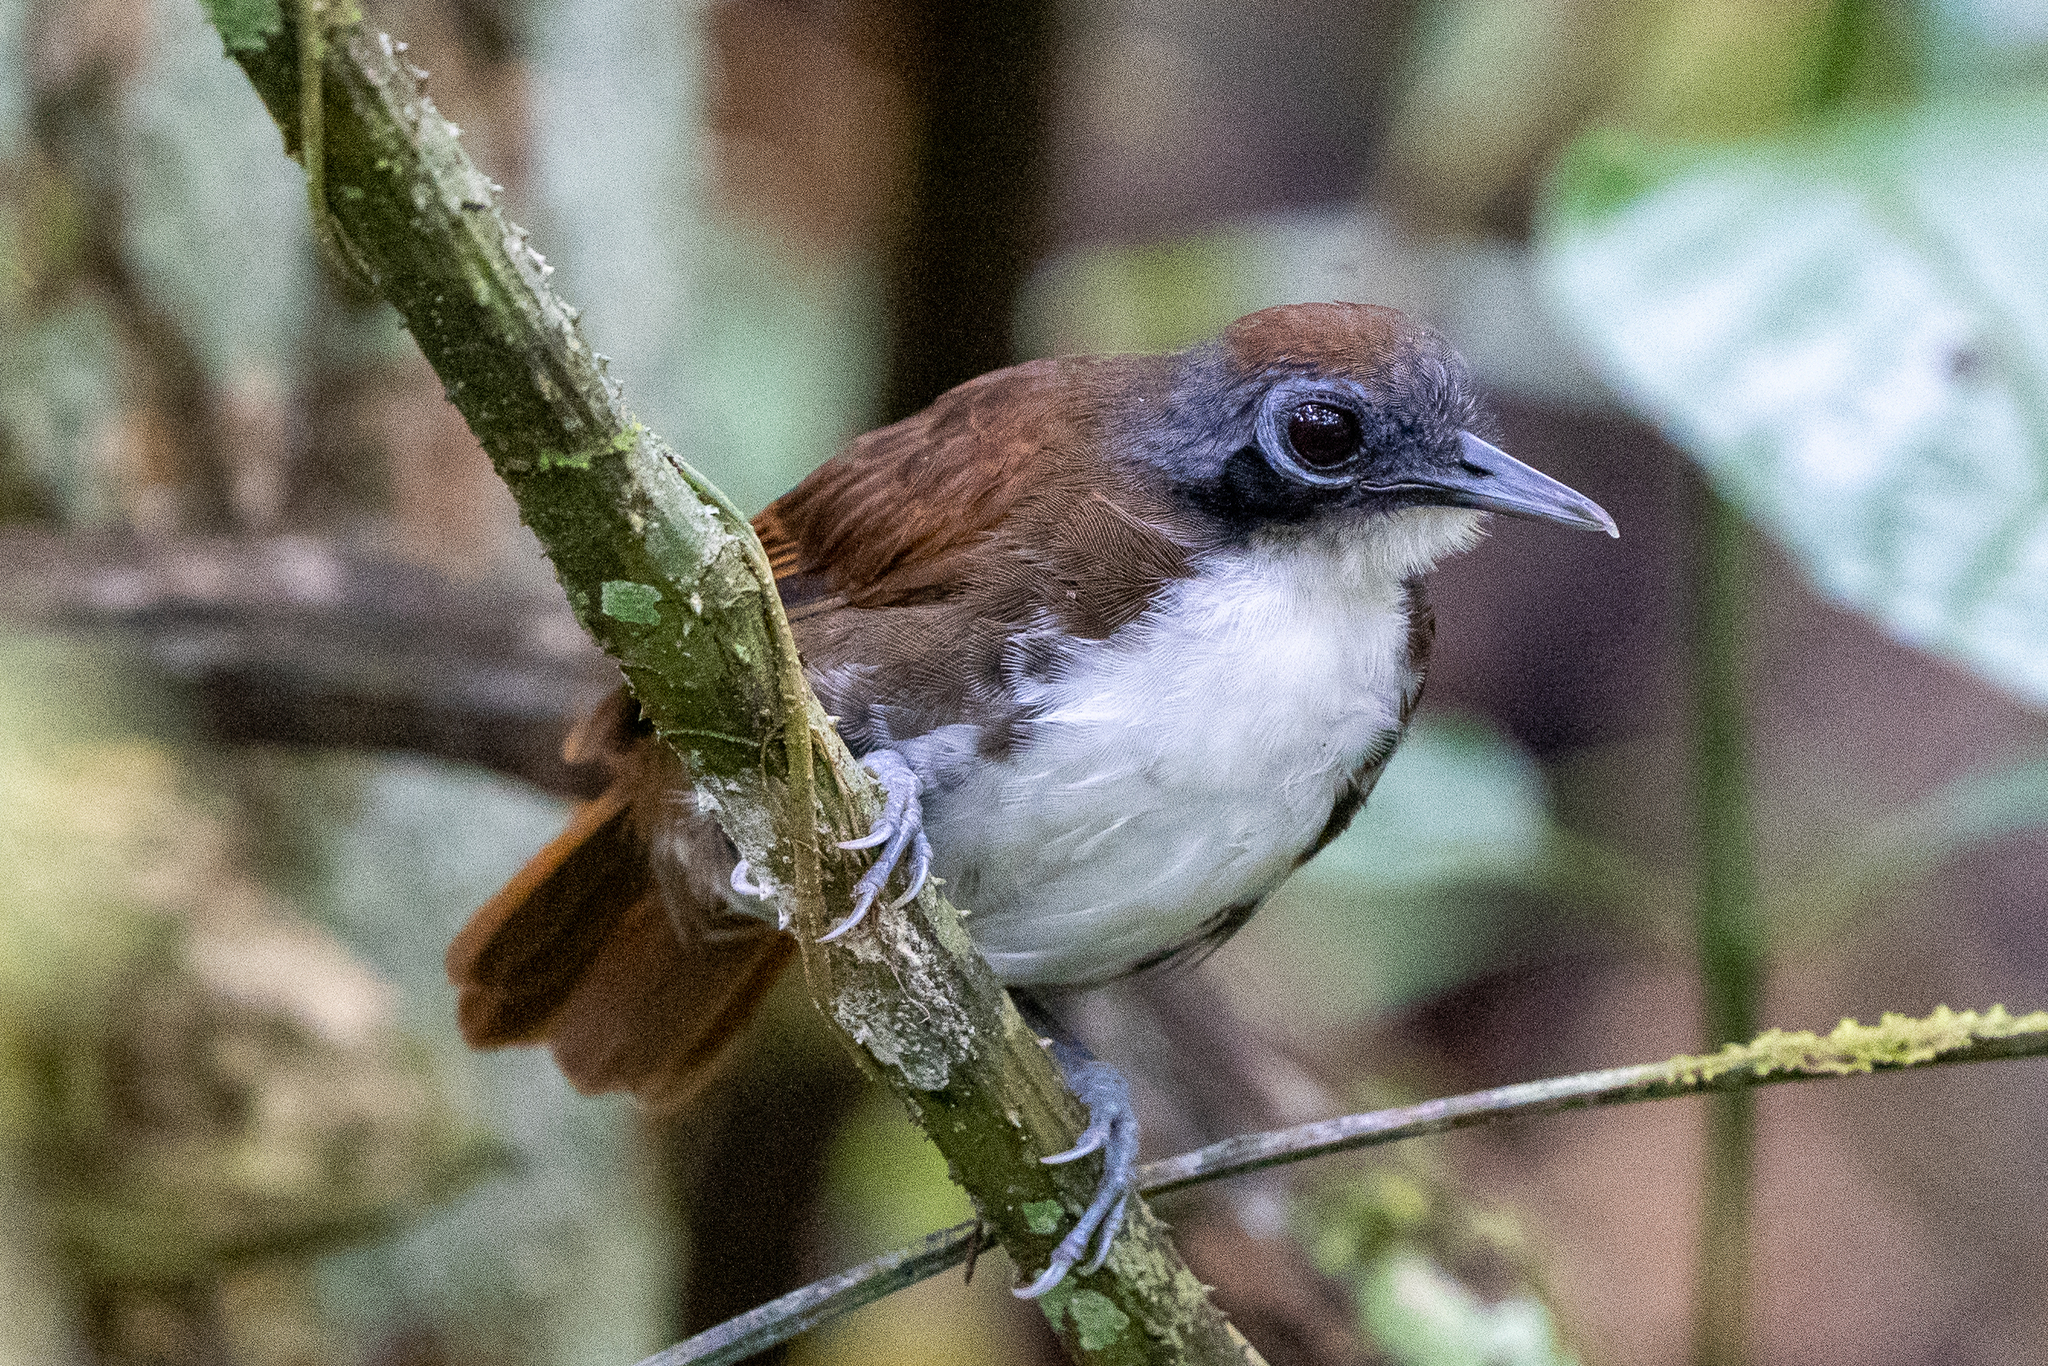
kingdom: Animalia
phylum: Chordata
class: Aves
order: Passeriformes
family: Thamnophilidae
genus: Gymnopithys
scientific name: Gymnopithys leucaspis
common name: White-cheeked antbird
